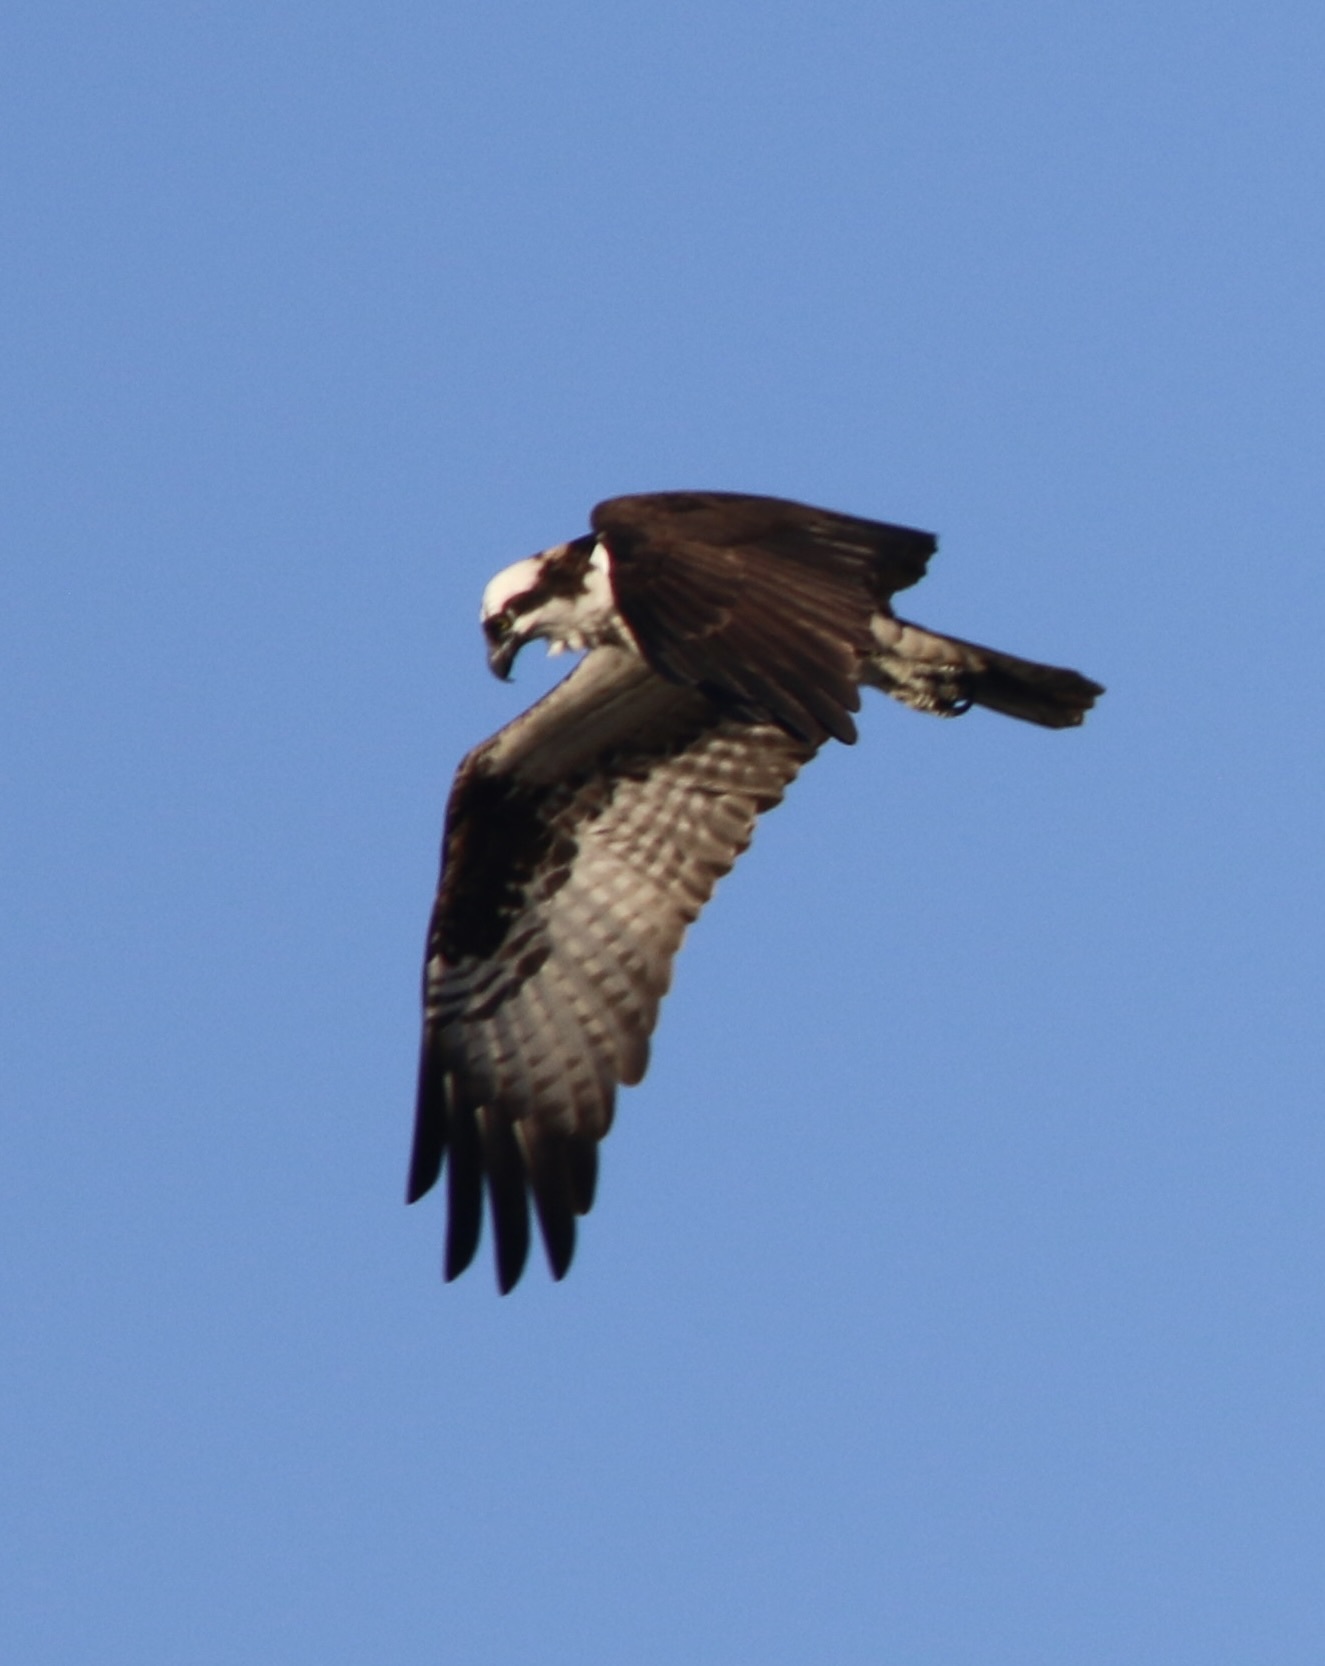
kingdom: Animalia
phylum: Chordata
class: Aves
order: Accipitriformes
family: Pandionidae
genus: Pandion
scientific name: Pandion haliaetus
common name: Osprey
